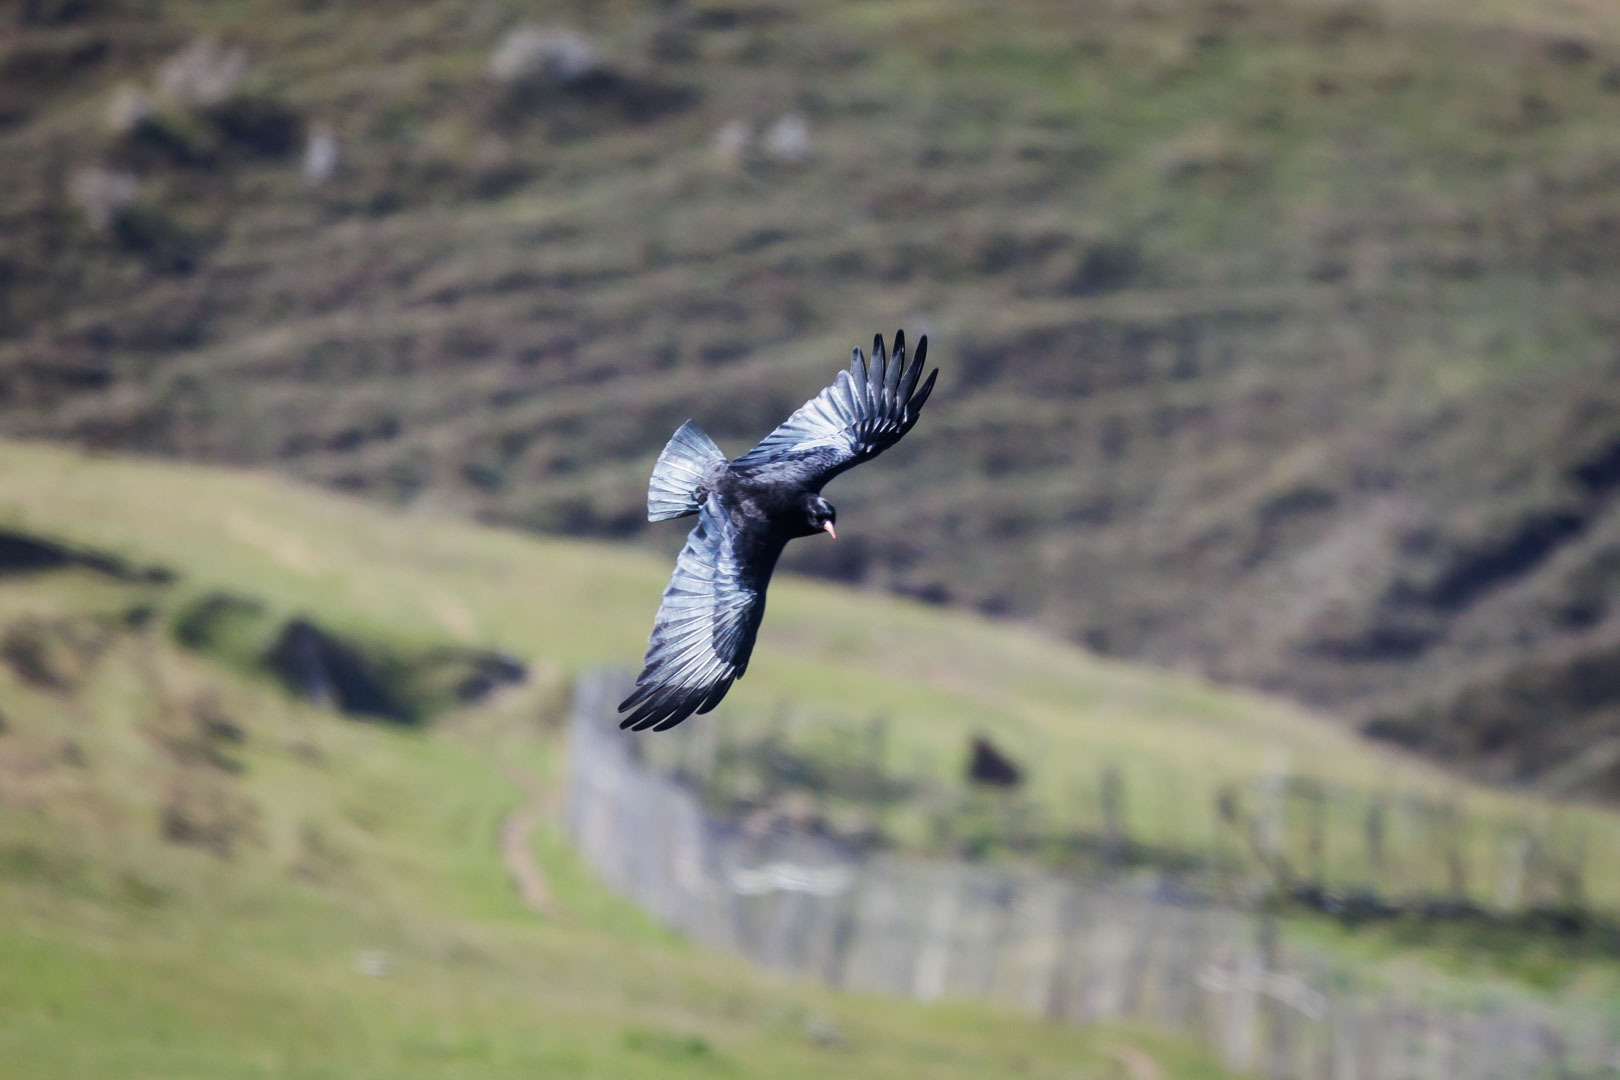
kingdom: Animalia
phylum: Chordata
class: Aves
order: Passeriformes
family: Corvidae
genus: Pyrrhocorax
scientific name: Pyrrhocorax pyrrhocorax
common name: Red-billed chough
